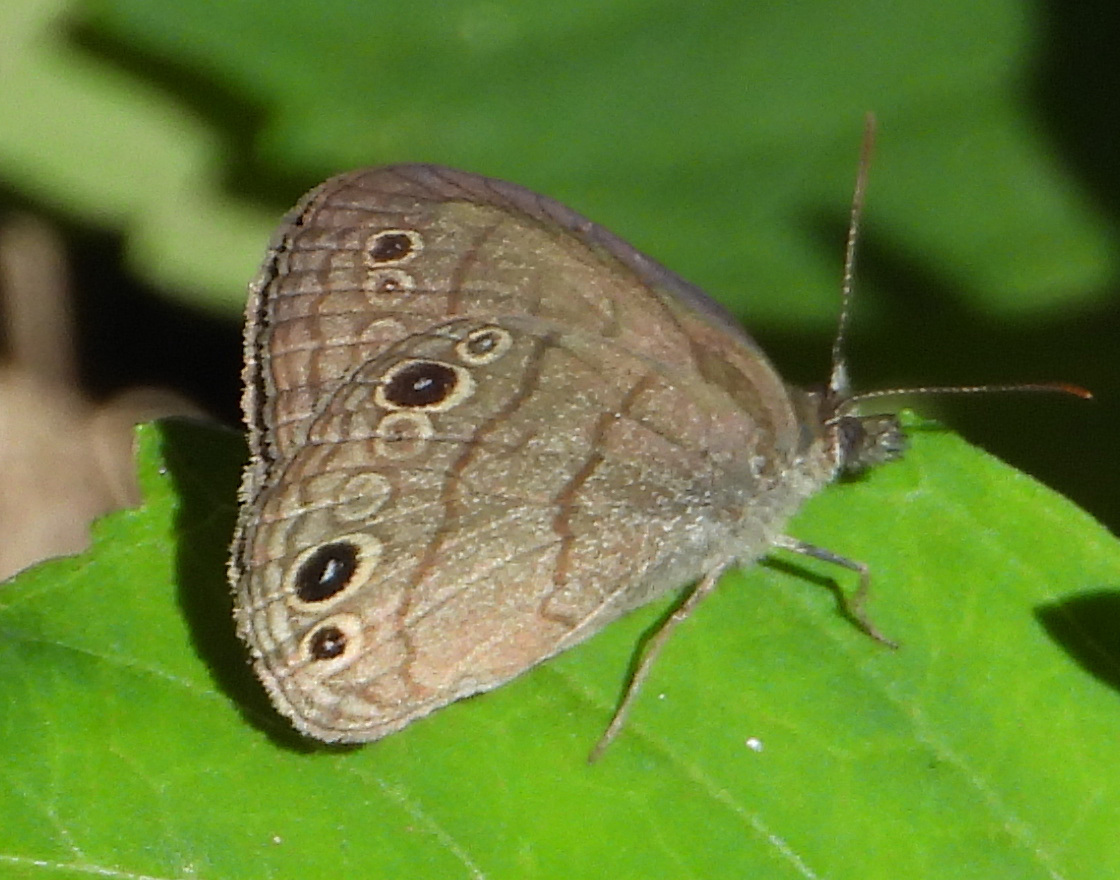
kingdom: Animalia
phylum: Arthropoda
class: Insecta
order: Lepidoptera
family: Nymphalidae
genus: Hermeuptychia
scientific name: Hermeuptychia hermes
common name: Hermes satyr
